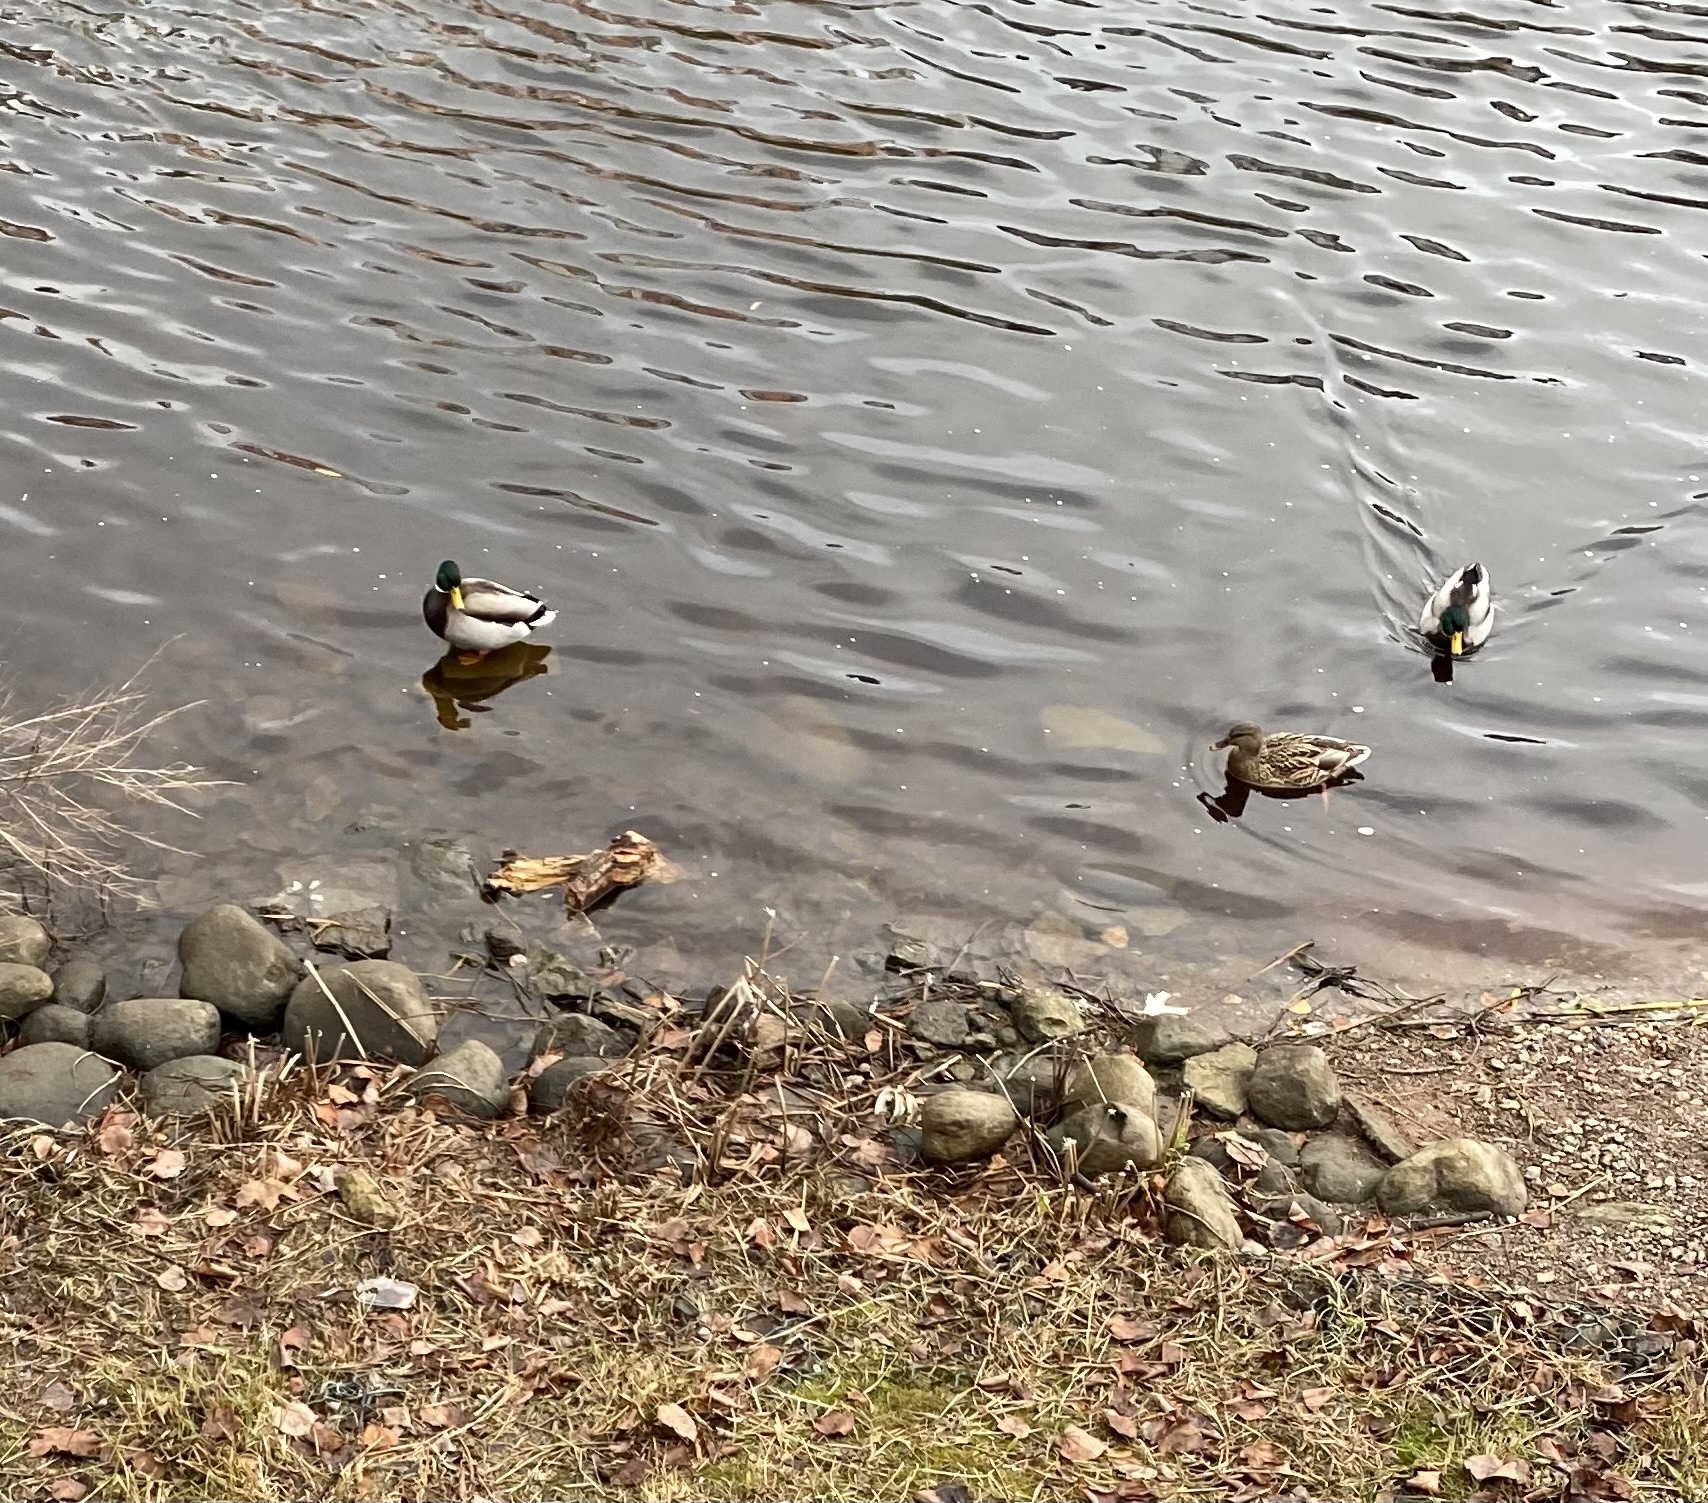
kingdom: Animalia
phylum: Chordata
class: Aves
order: Anseriformes
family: Anatidae
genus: Anas
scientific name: Anas platyrhynchos
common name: Mallard
